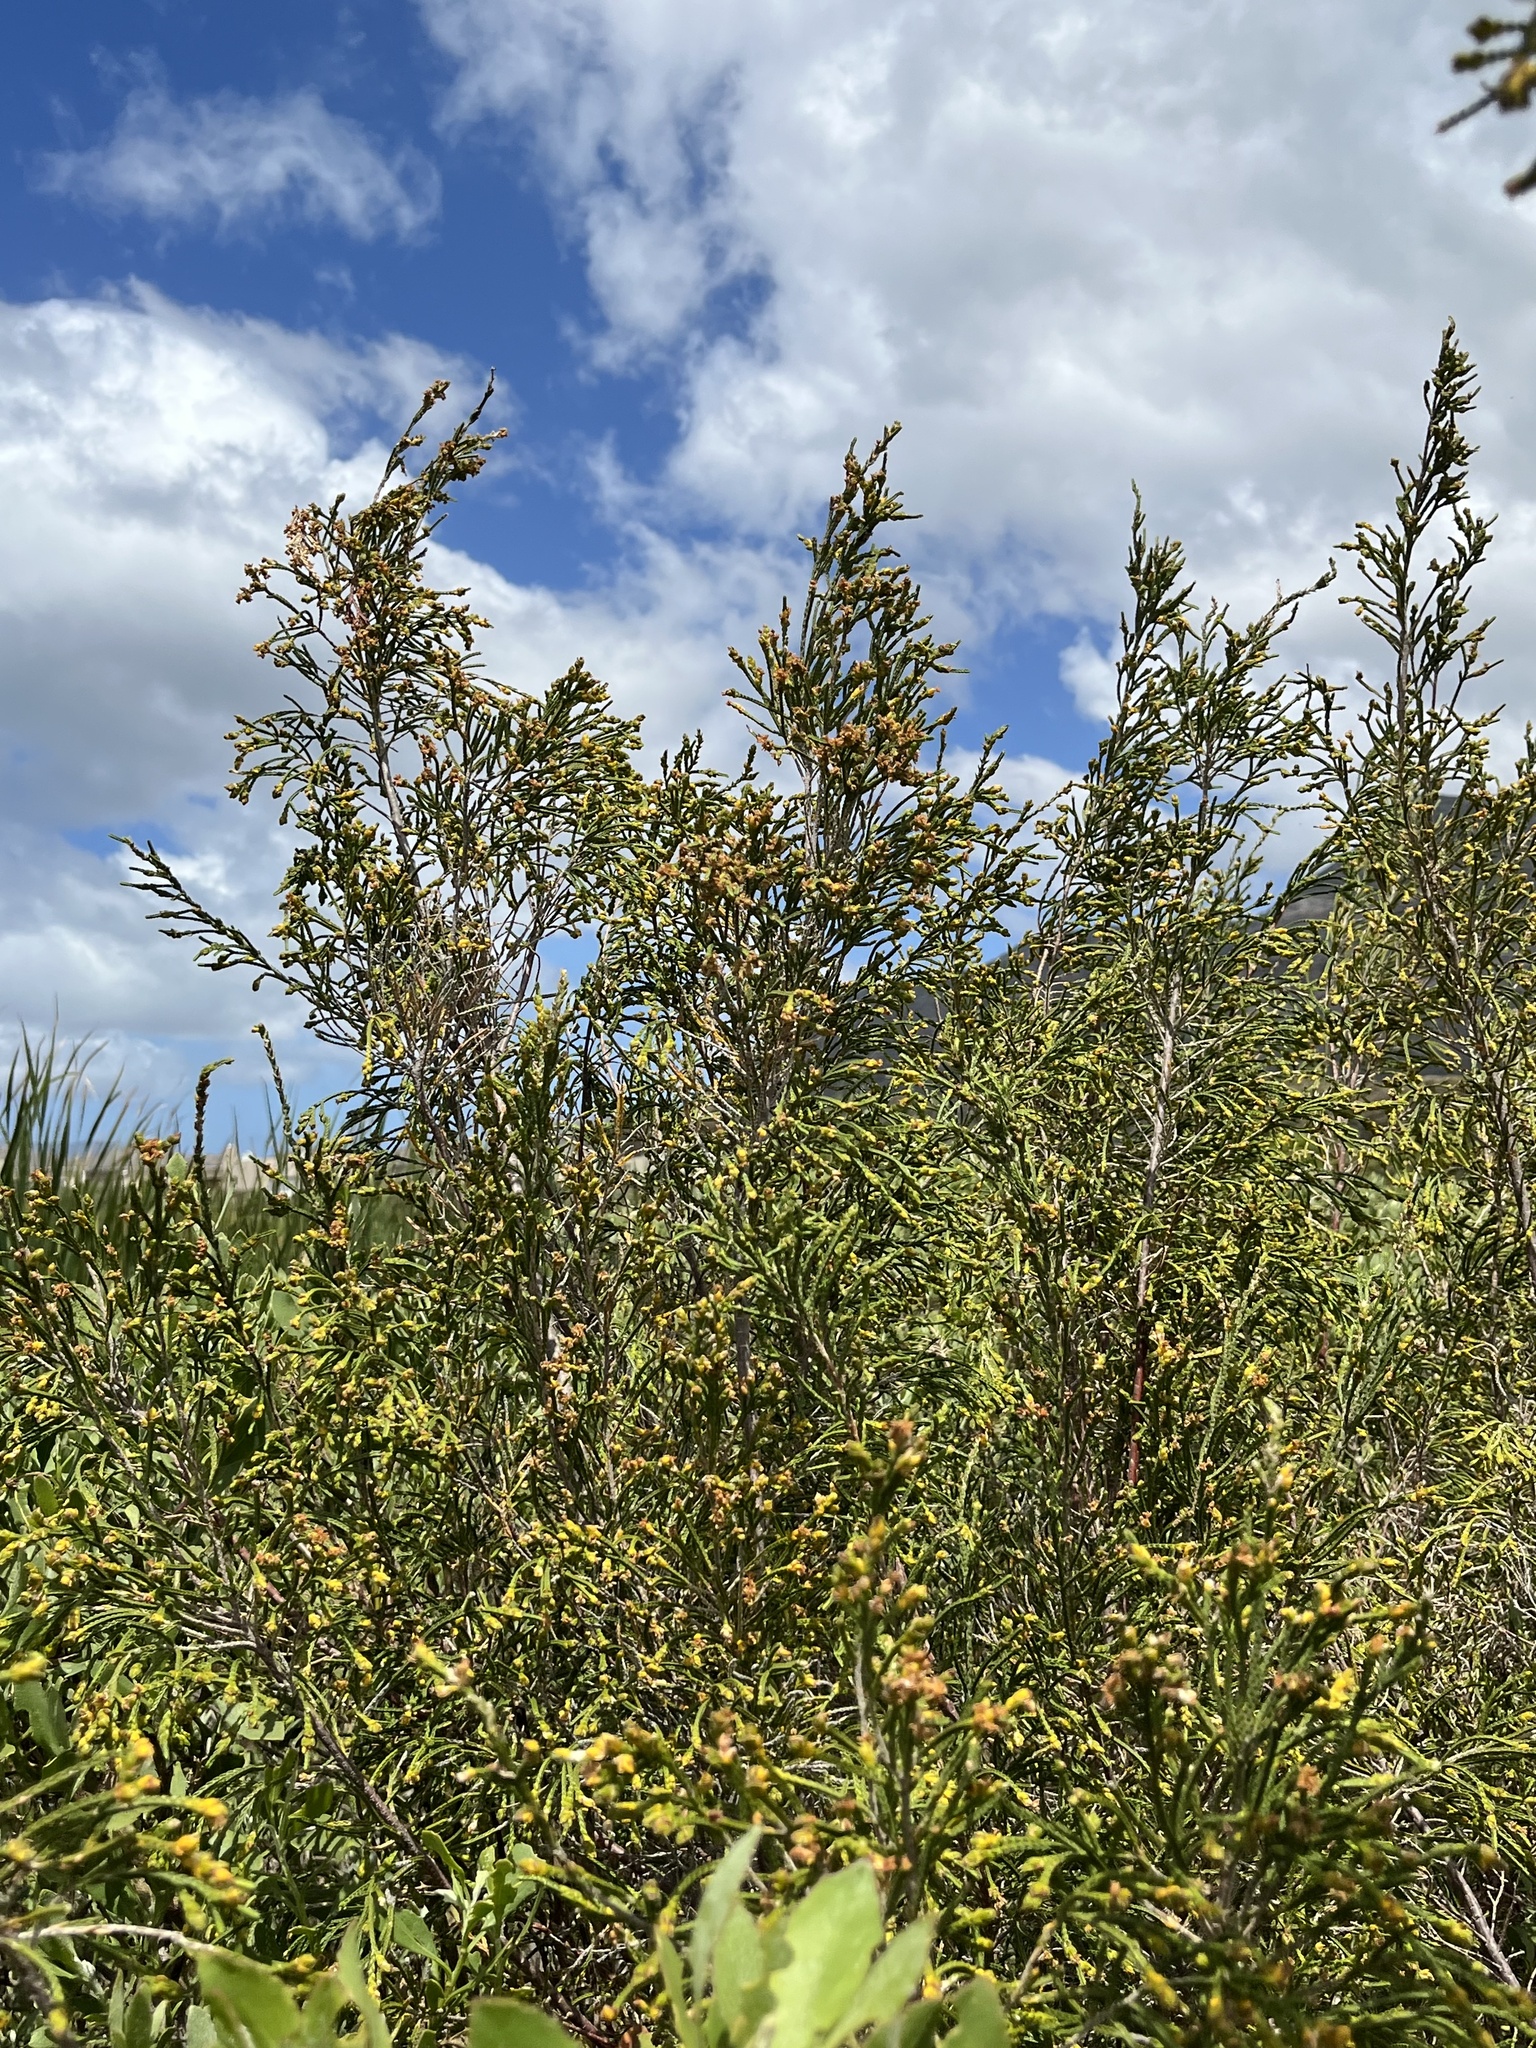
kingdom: Plantae
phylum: Tracheophyta
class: Magnoliopsida
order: Malvales
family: Thymelaeaceae
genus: Passerina
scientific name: Passerina rigida
